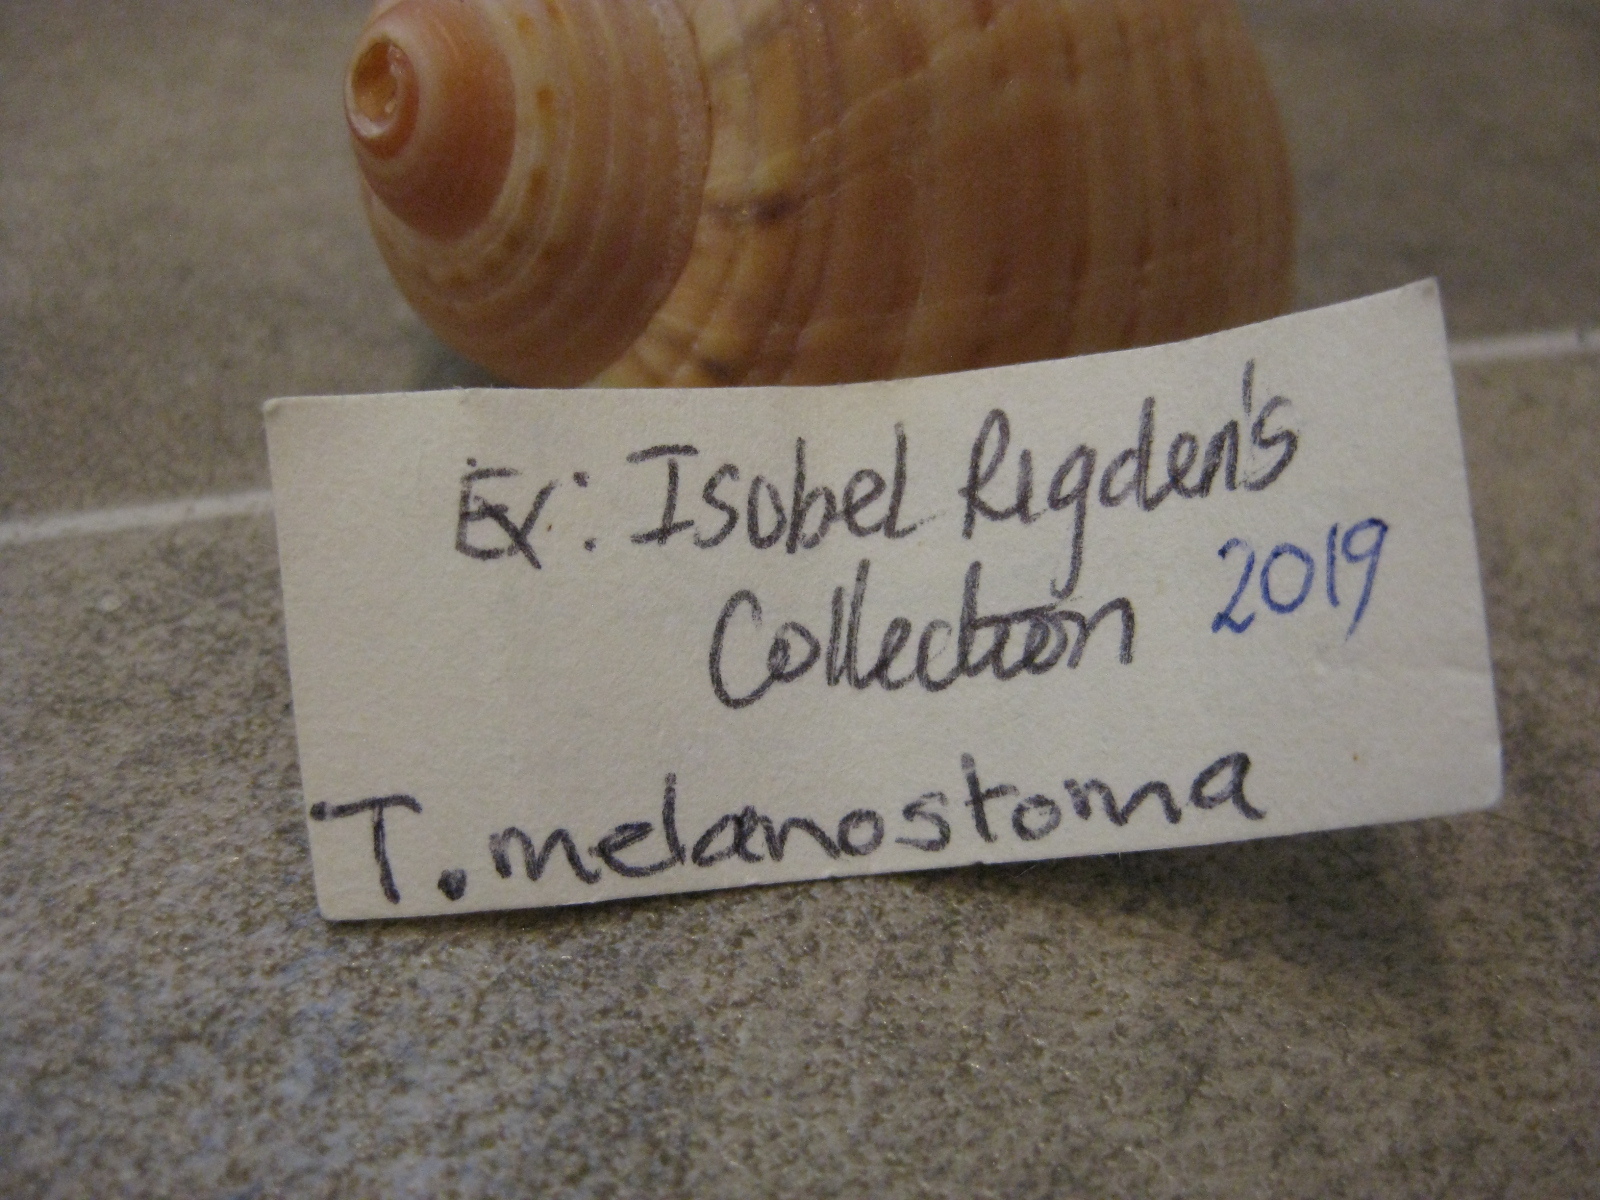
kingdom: Animalia
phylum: Mollusca
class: Gastropoda
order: Littorinimorpha
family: Tonnidae
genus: Tonna
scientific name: Tonna cumingii
